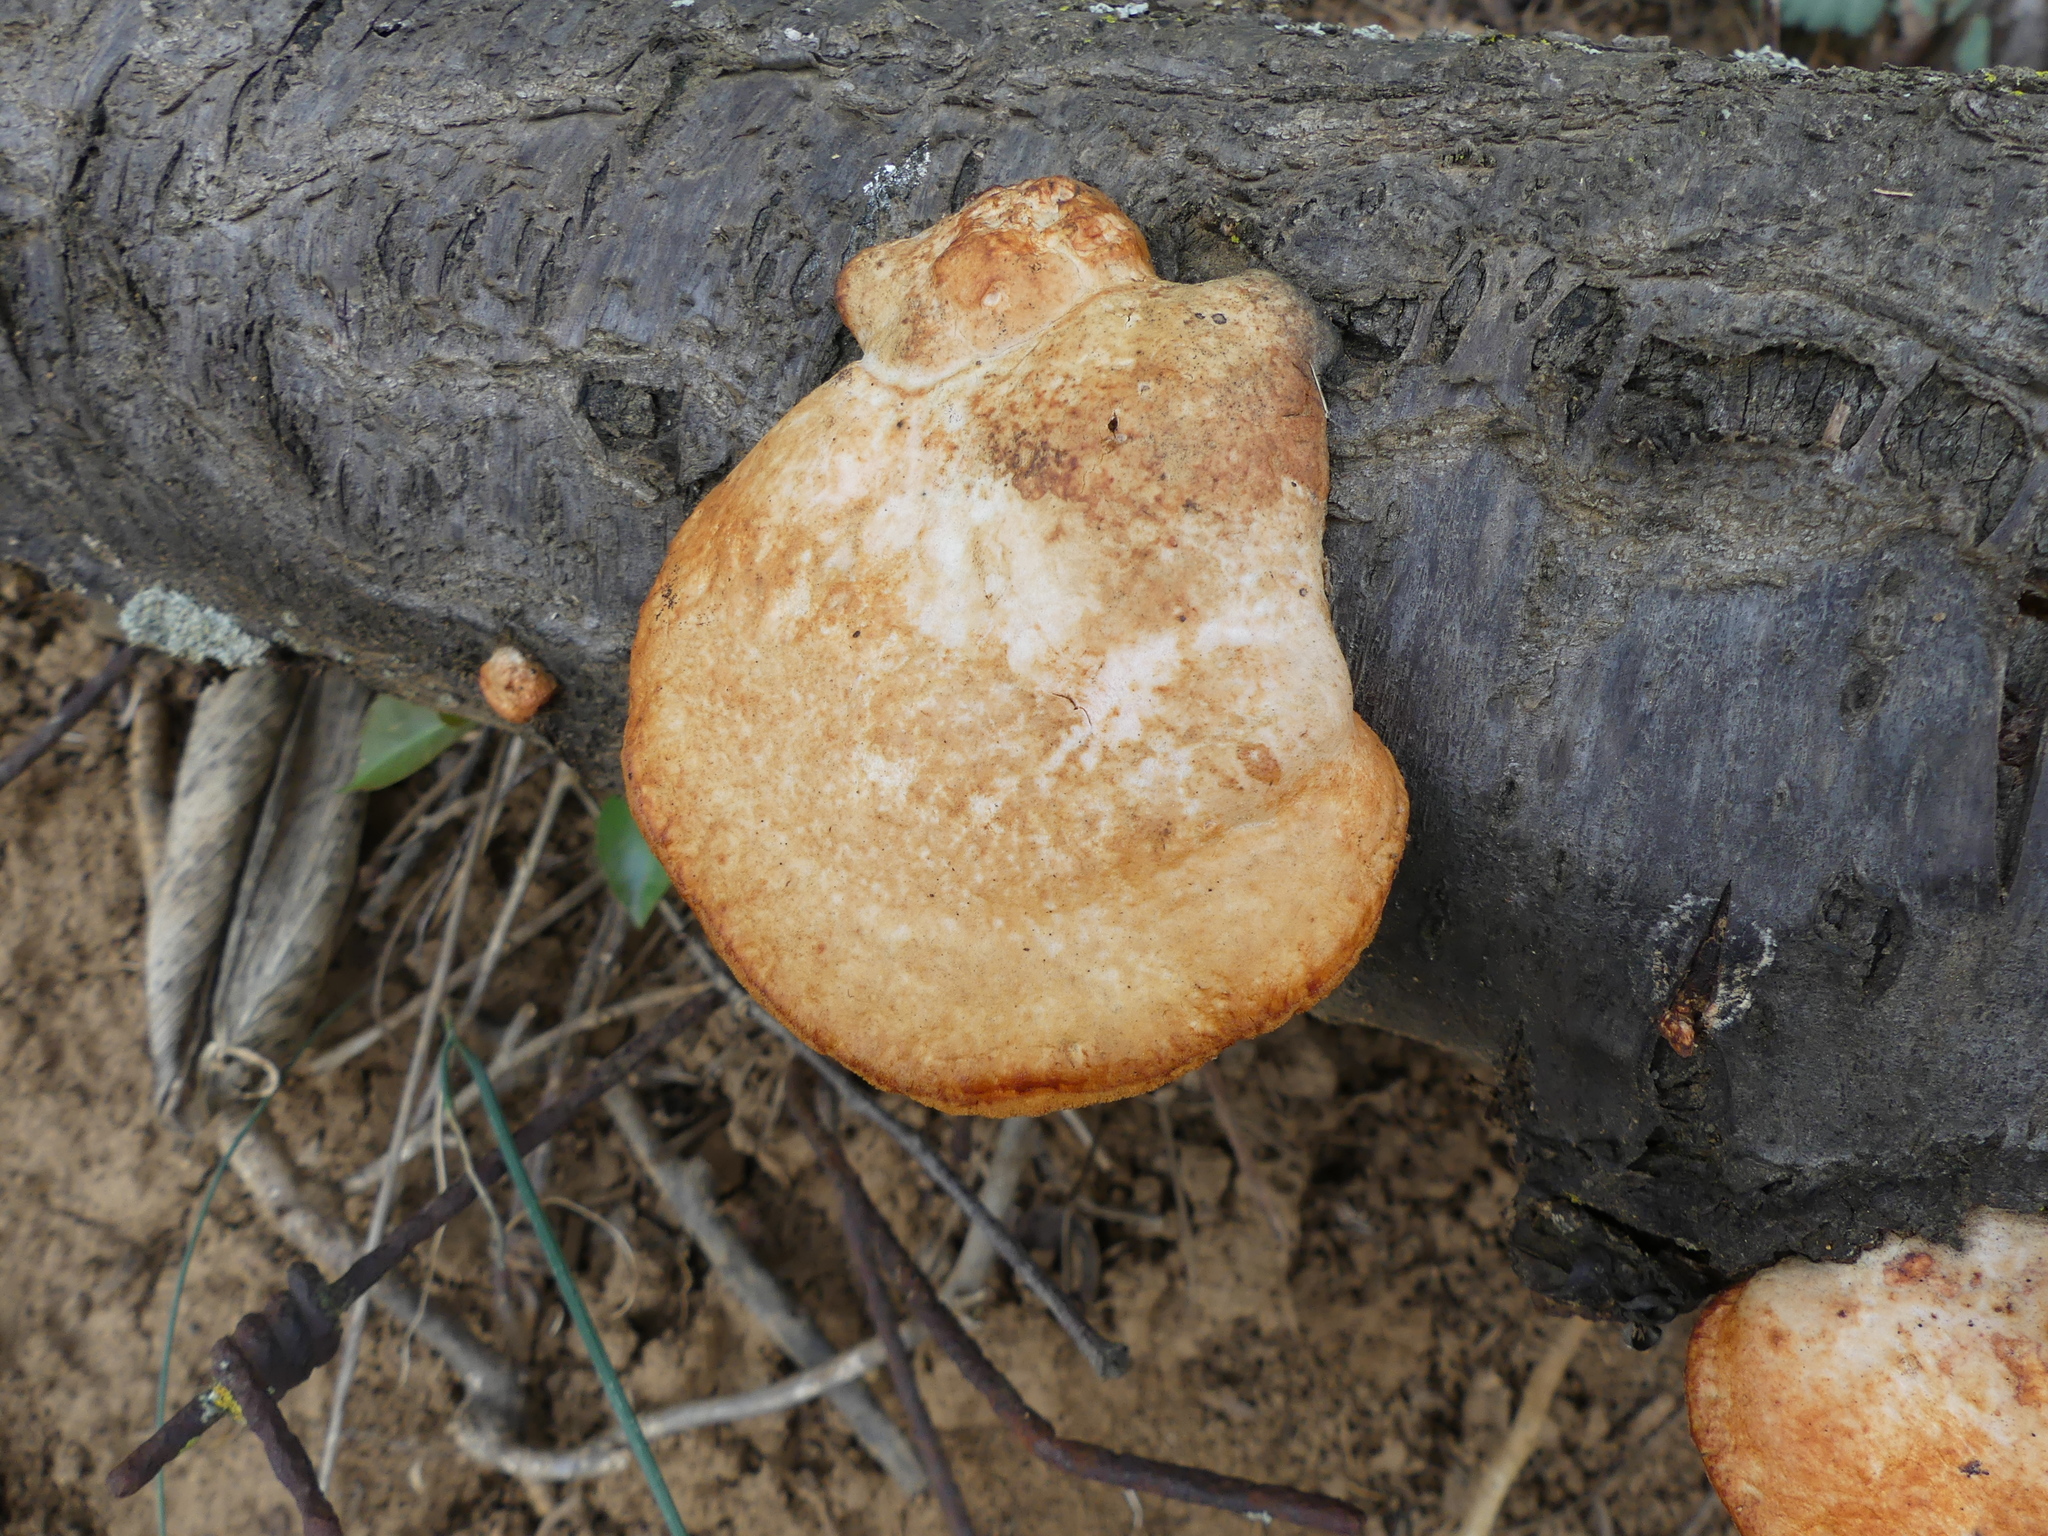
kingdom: Fungi
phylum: Basidiomycota
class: Agaricomycetes
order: Polyporales
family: Polyporaceae
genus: Trametes
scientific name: Trametes cinnabarina
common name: Northern cinnabar polypore
